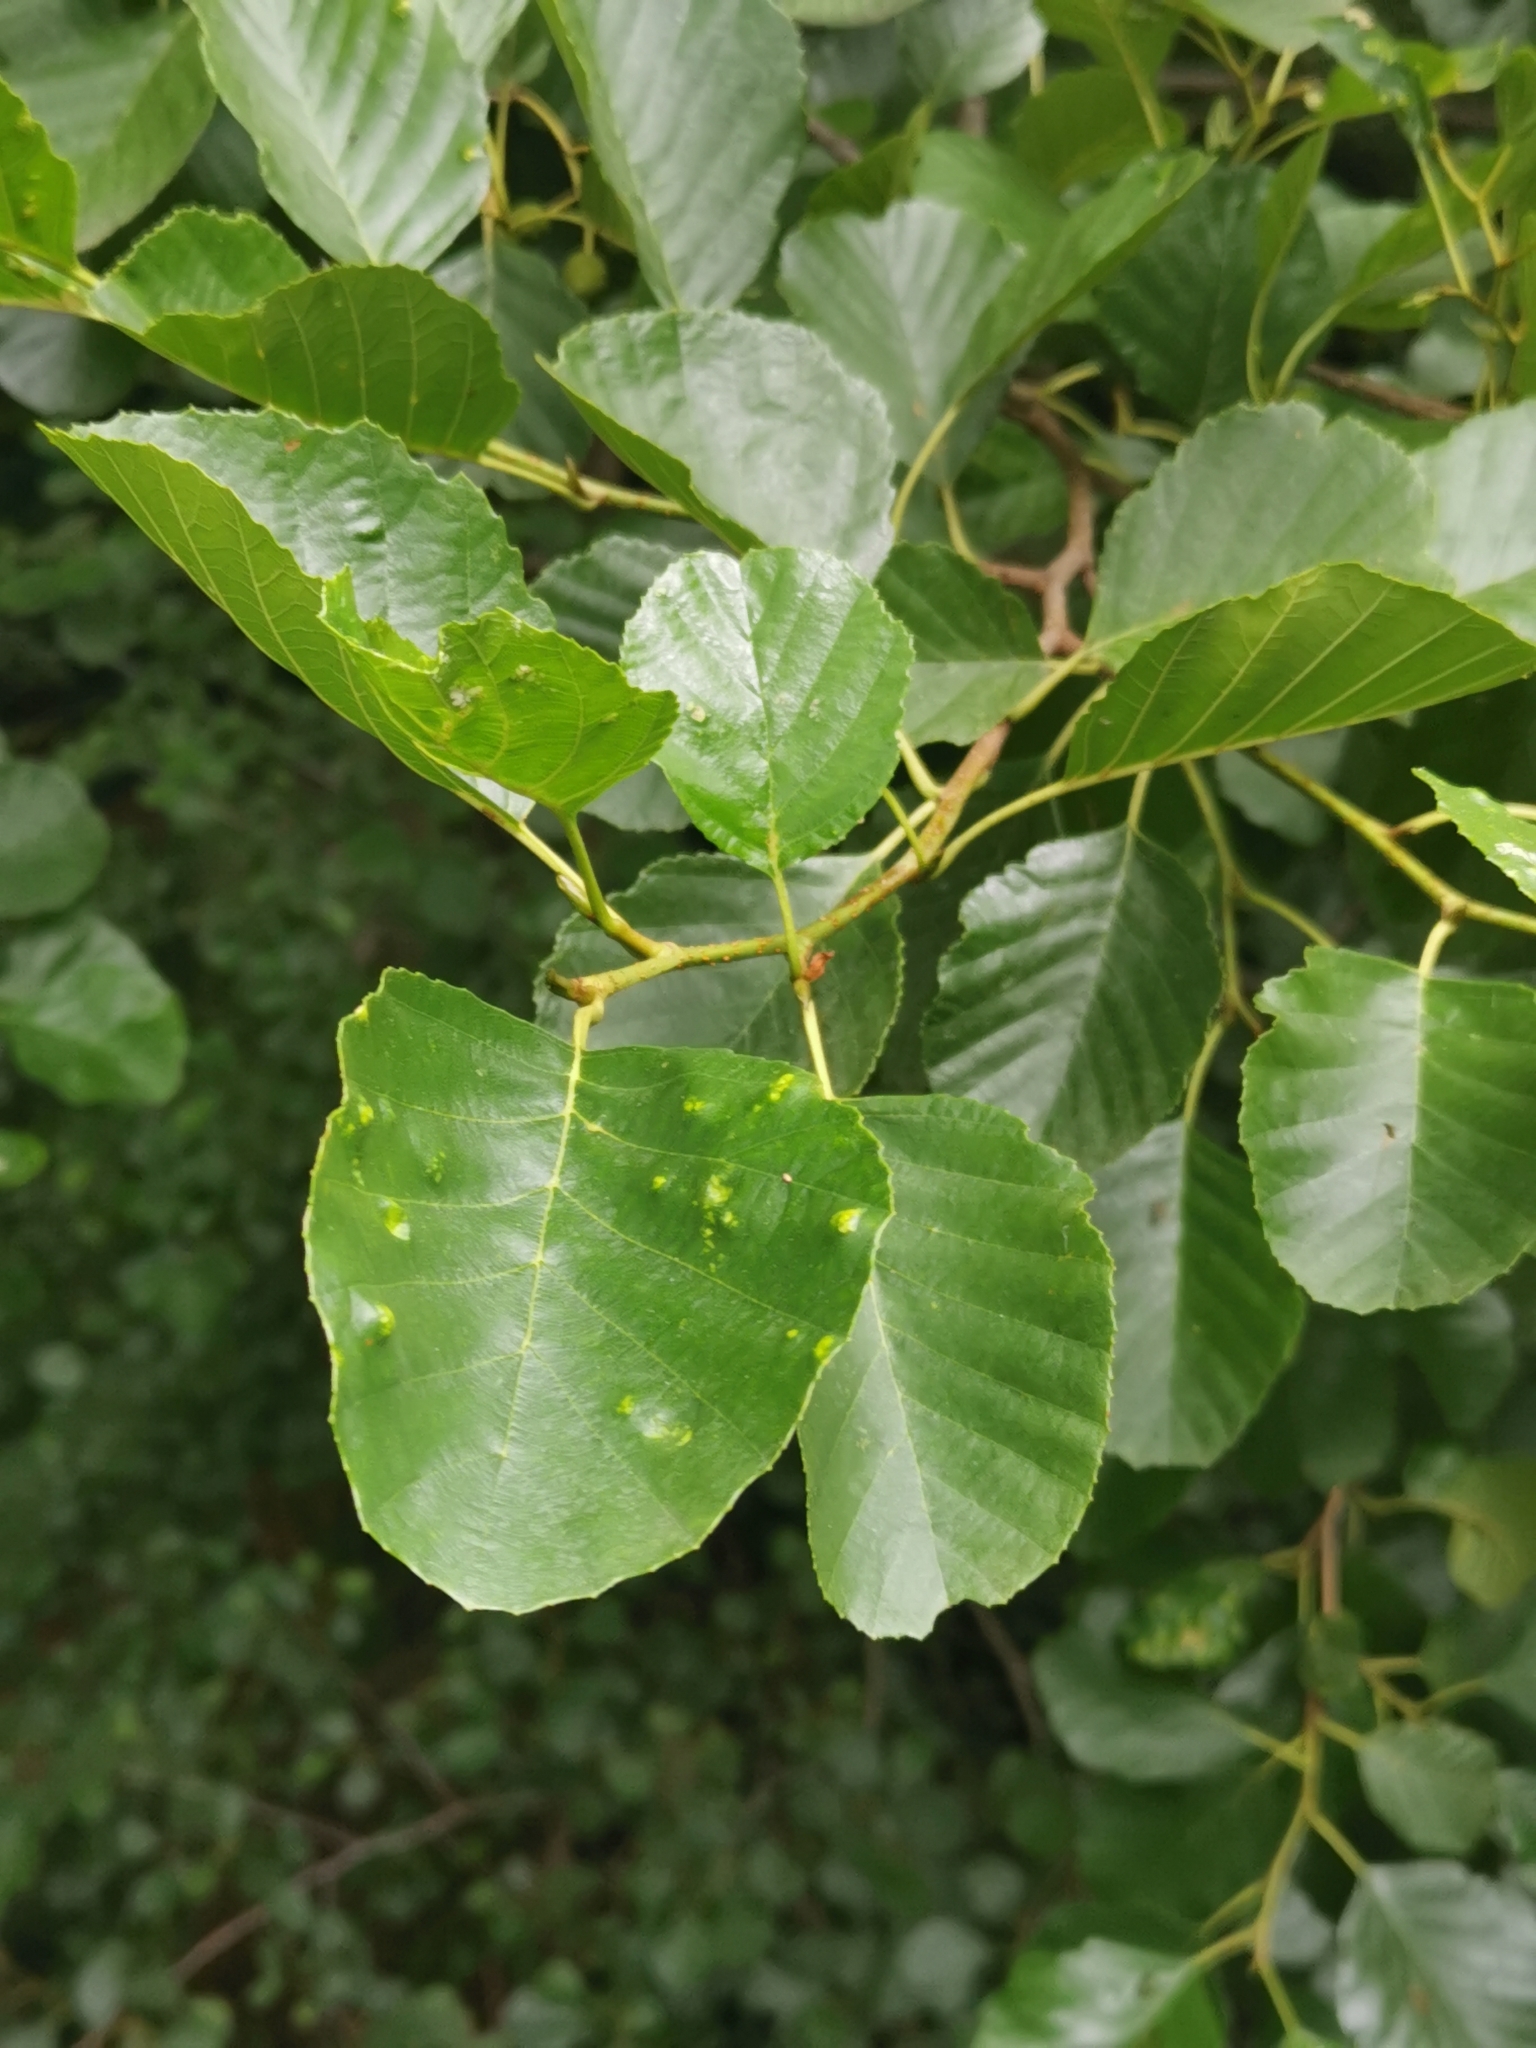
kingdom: Plantae
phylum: Tracheophyta
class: Magnoliopsida
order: Fagales
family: Betulaceae
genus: Alnus
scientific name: Alnus glutinosa
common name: Black alder
